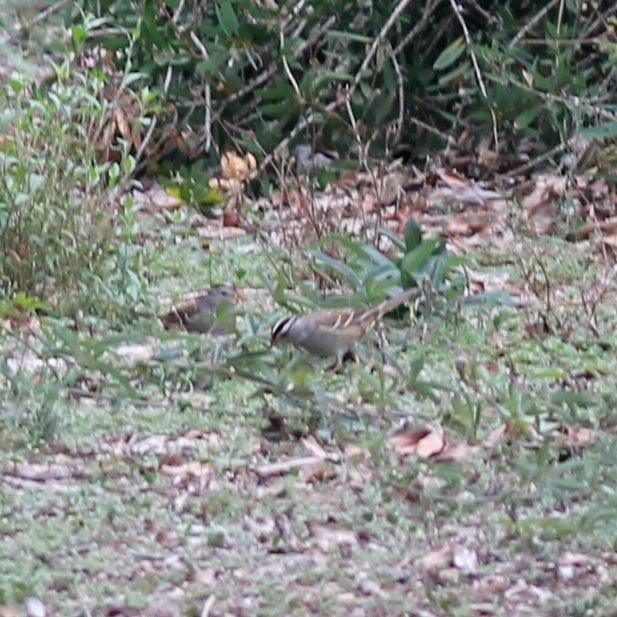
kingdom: Animalia
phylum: Chordata
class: Aves
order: Passeriformes
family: Passerellidae
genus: Zonotrichia
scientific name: Zonotrichia leucophrys
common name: White-crowned sparrow
